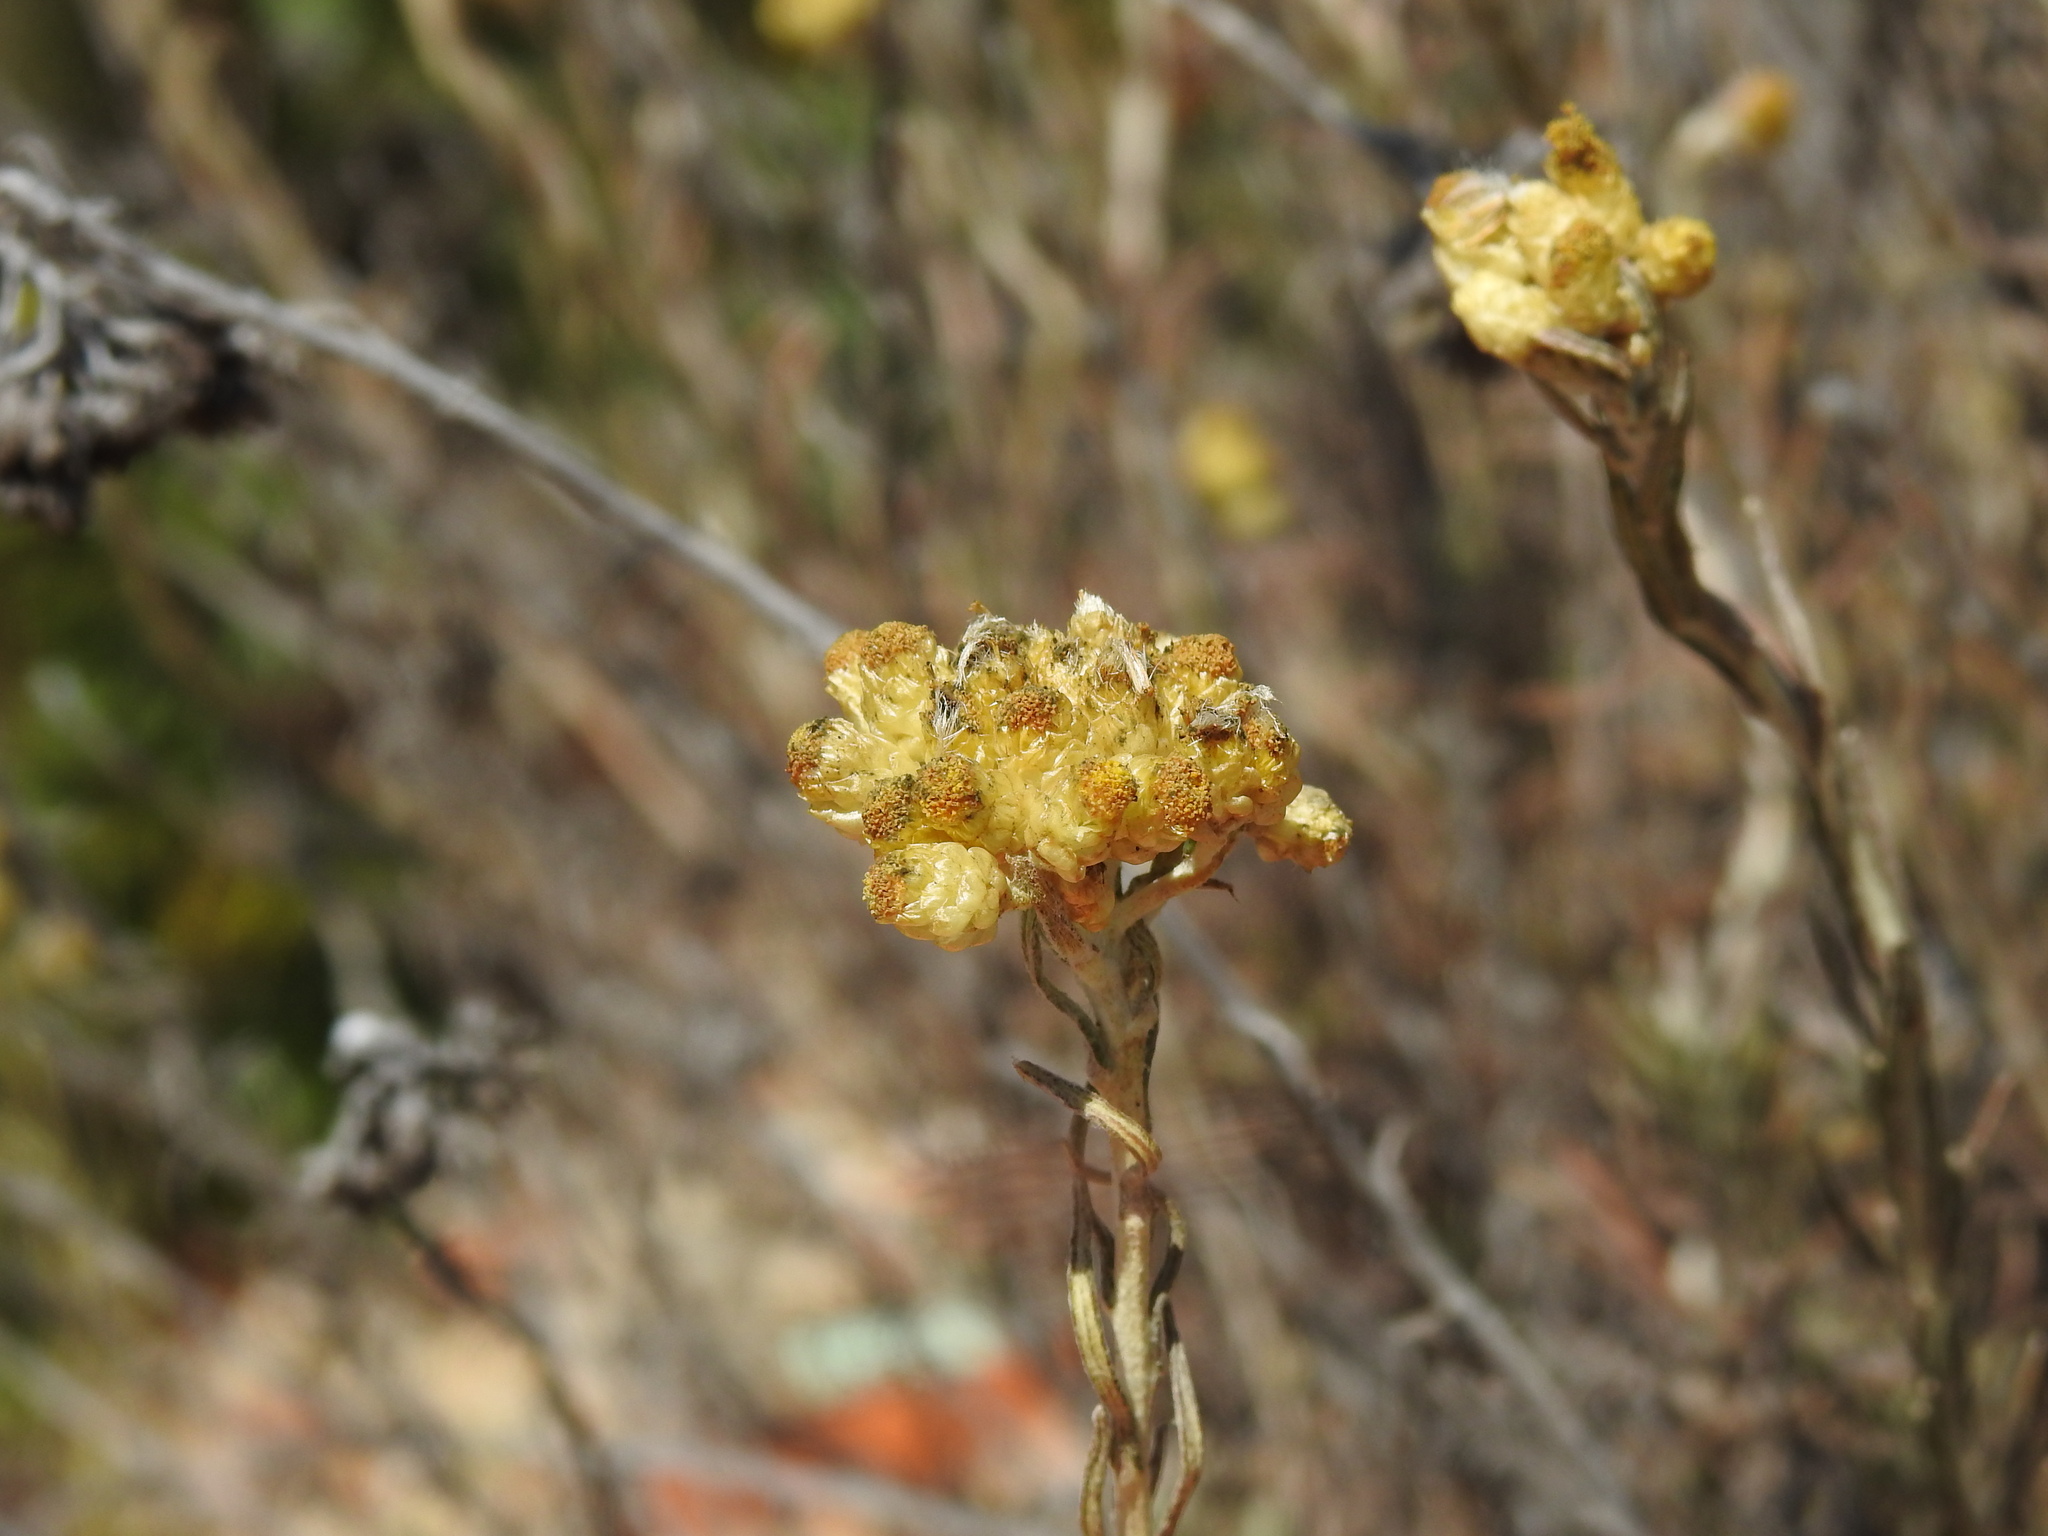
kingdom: Plantae
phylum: Tracheophyta
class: Magnoliopsida
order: Asterales
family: Asteraceae
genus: Helichrysum
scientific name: Helichrysum stoechas
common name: Goldilocks
